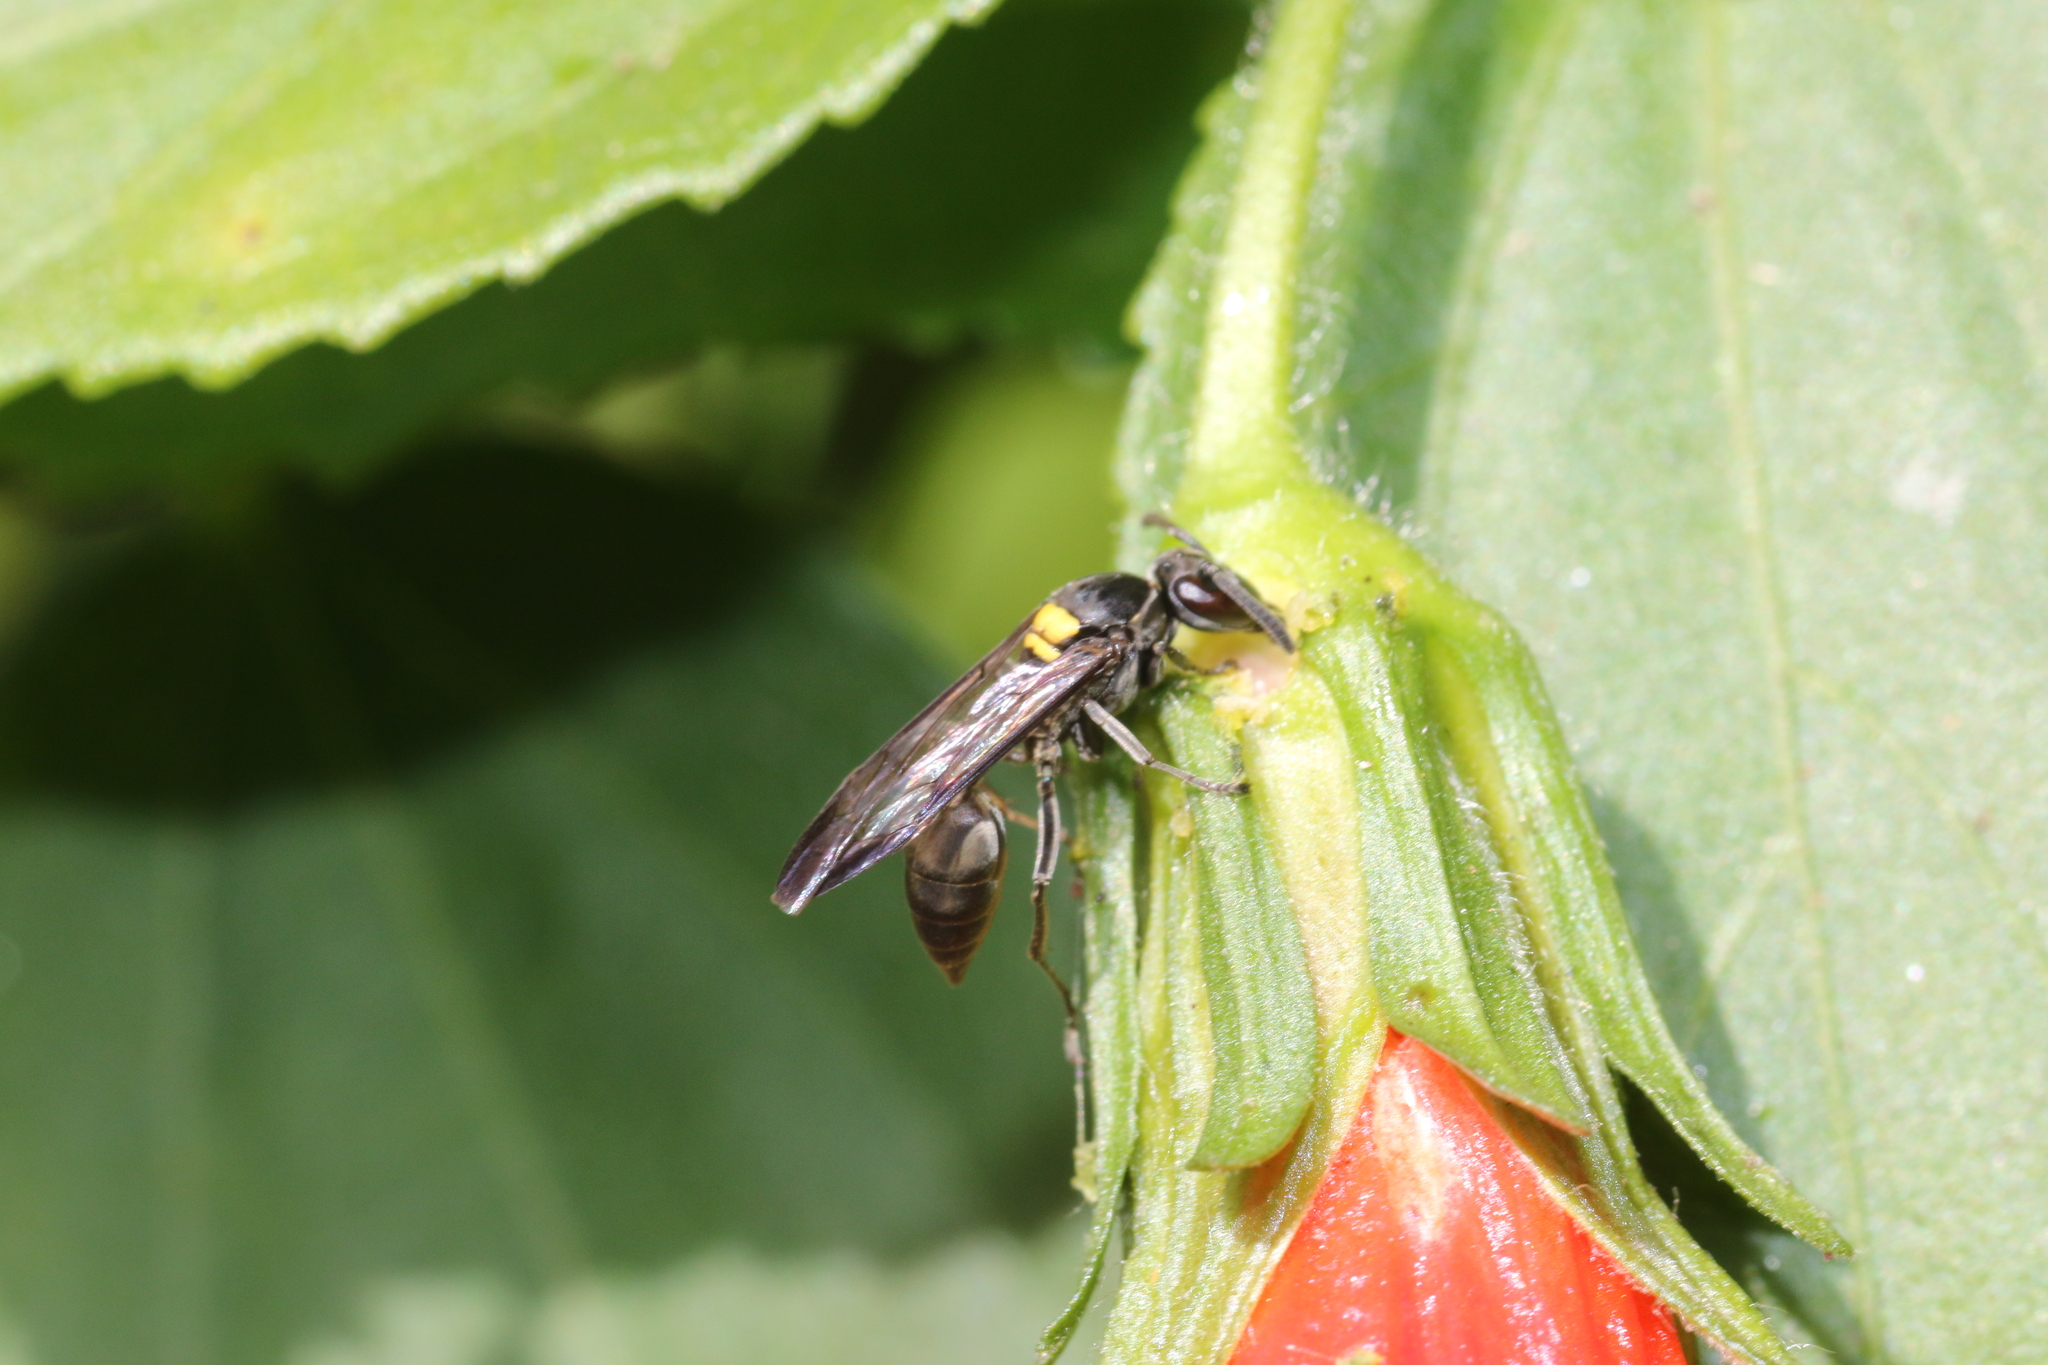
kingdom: Animalia
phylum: Arthropoda
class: Insecta
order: Hymenoptera
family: Eumenidae
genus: Polybia
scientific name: Polybia paulista
